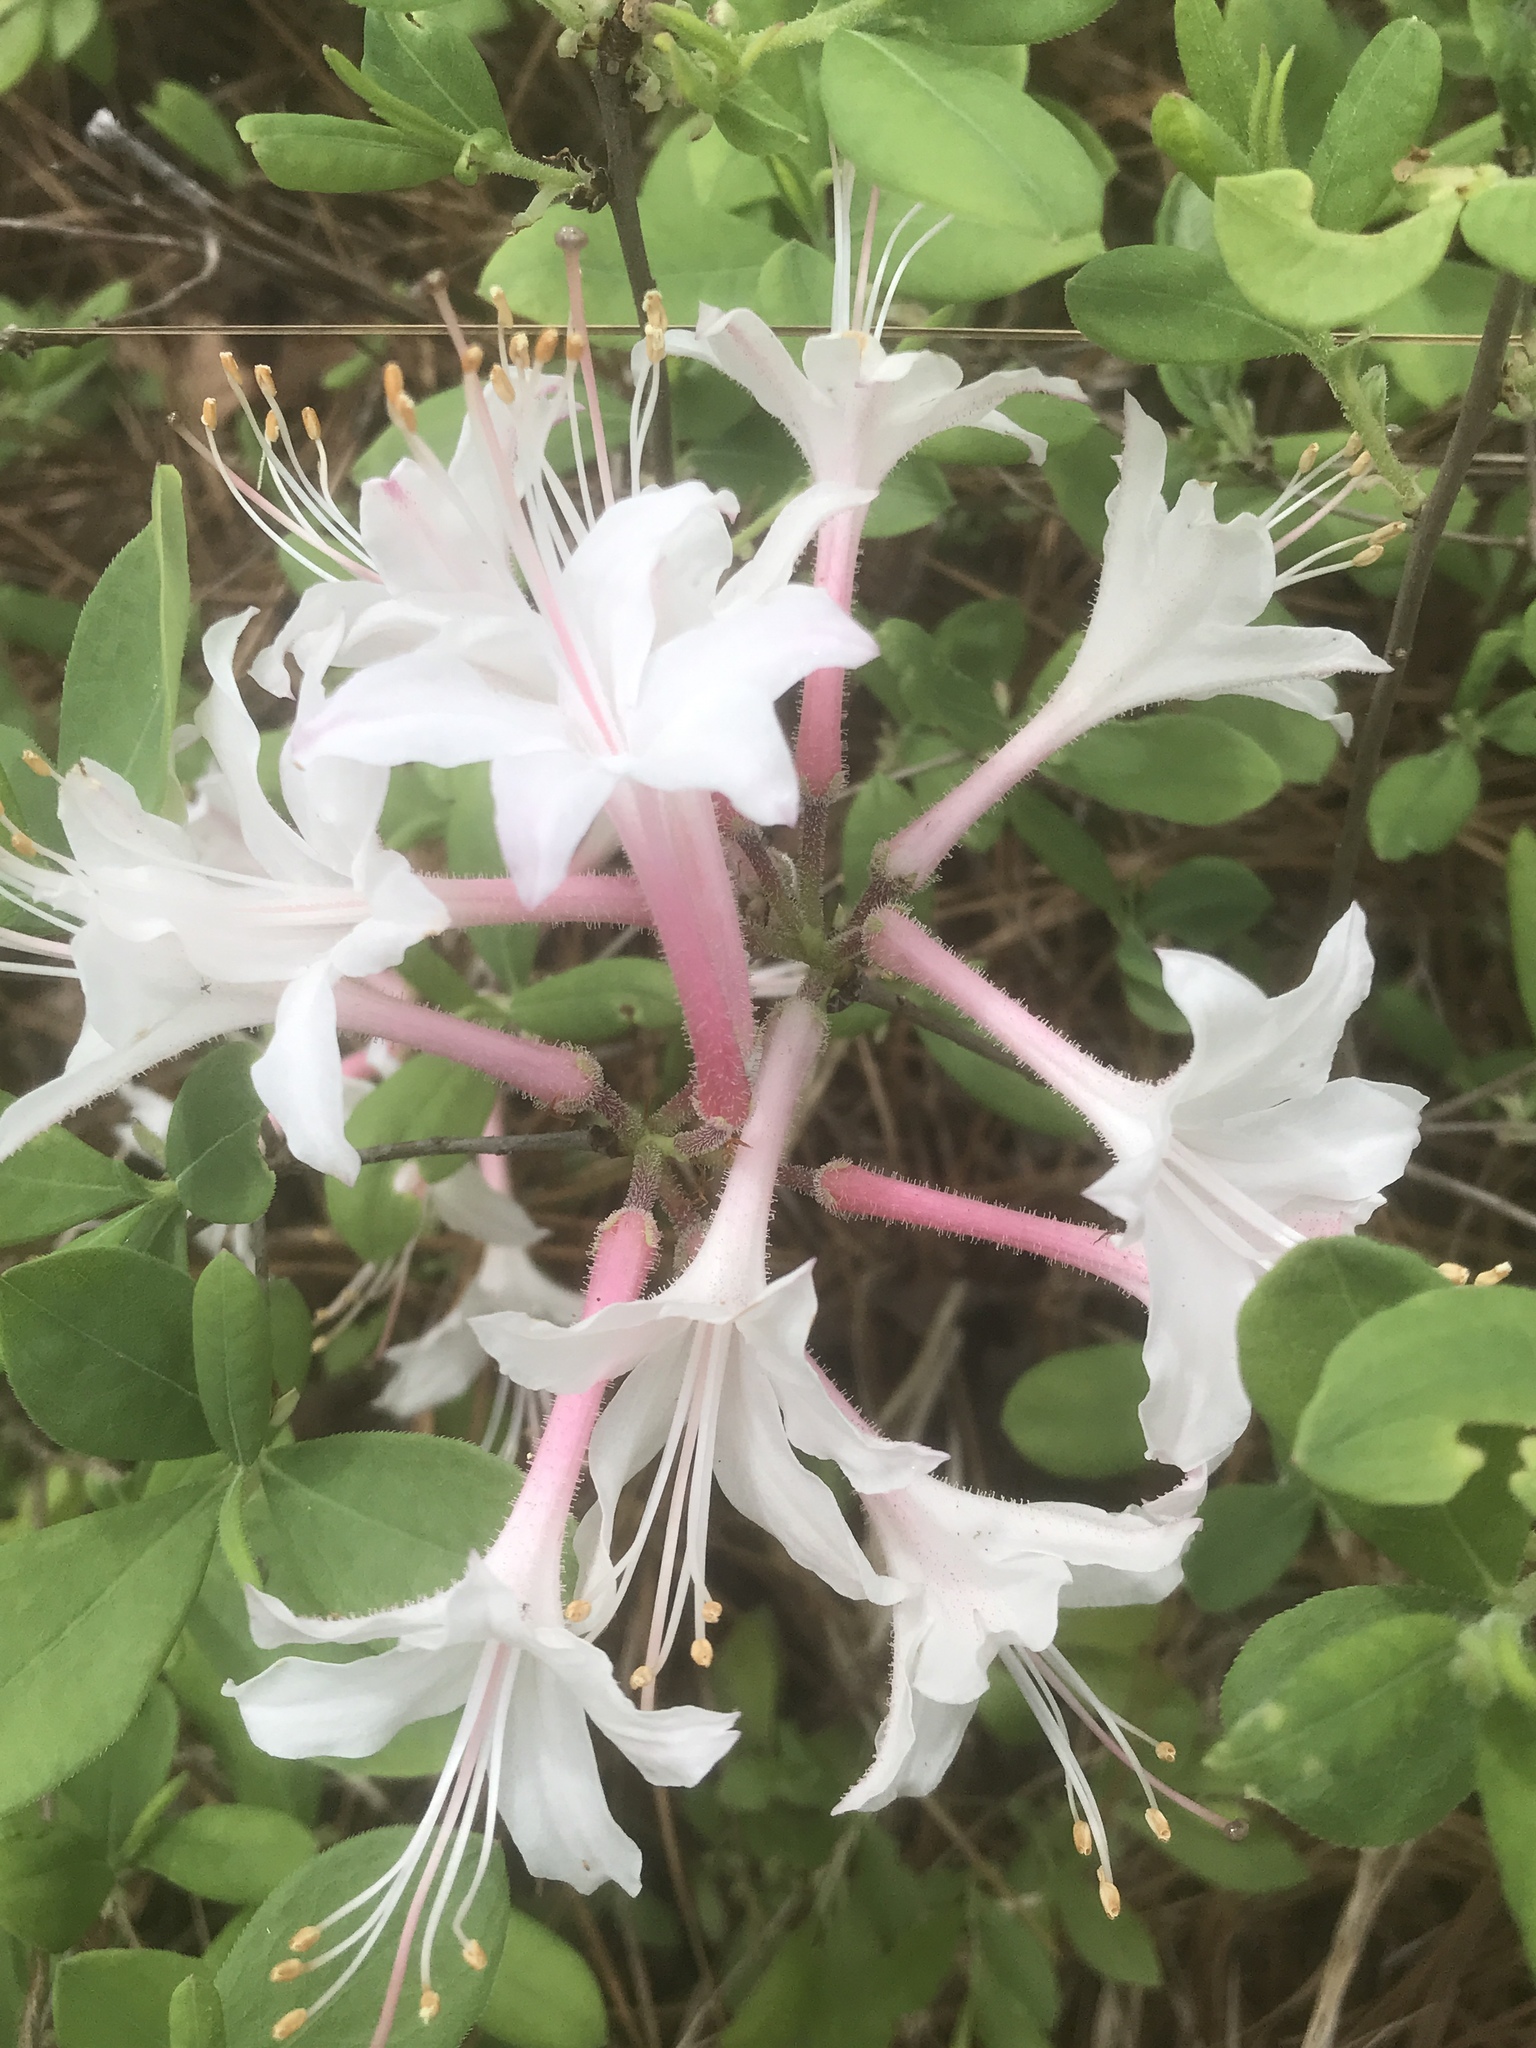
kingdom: Plantae
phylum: Tracheophyta
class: Magnoliopsida
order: Ericales
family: Ericaceae
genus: Rhododendron
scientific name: Rhododendron atlanticum
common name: Dwarf azalea
